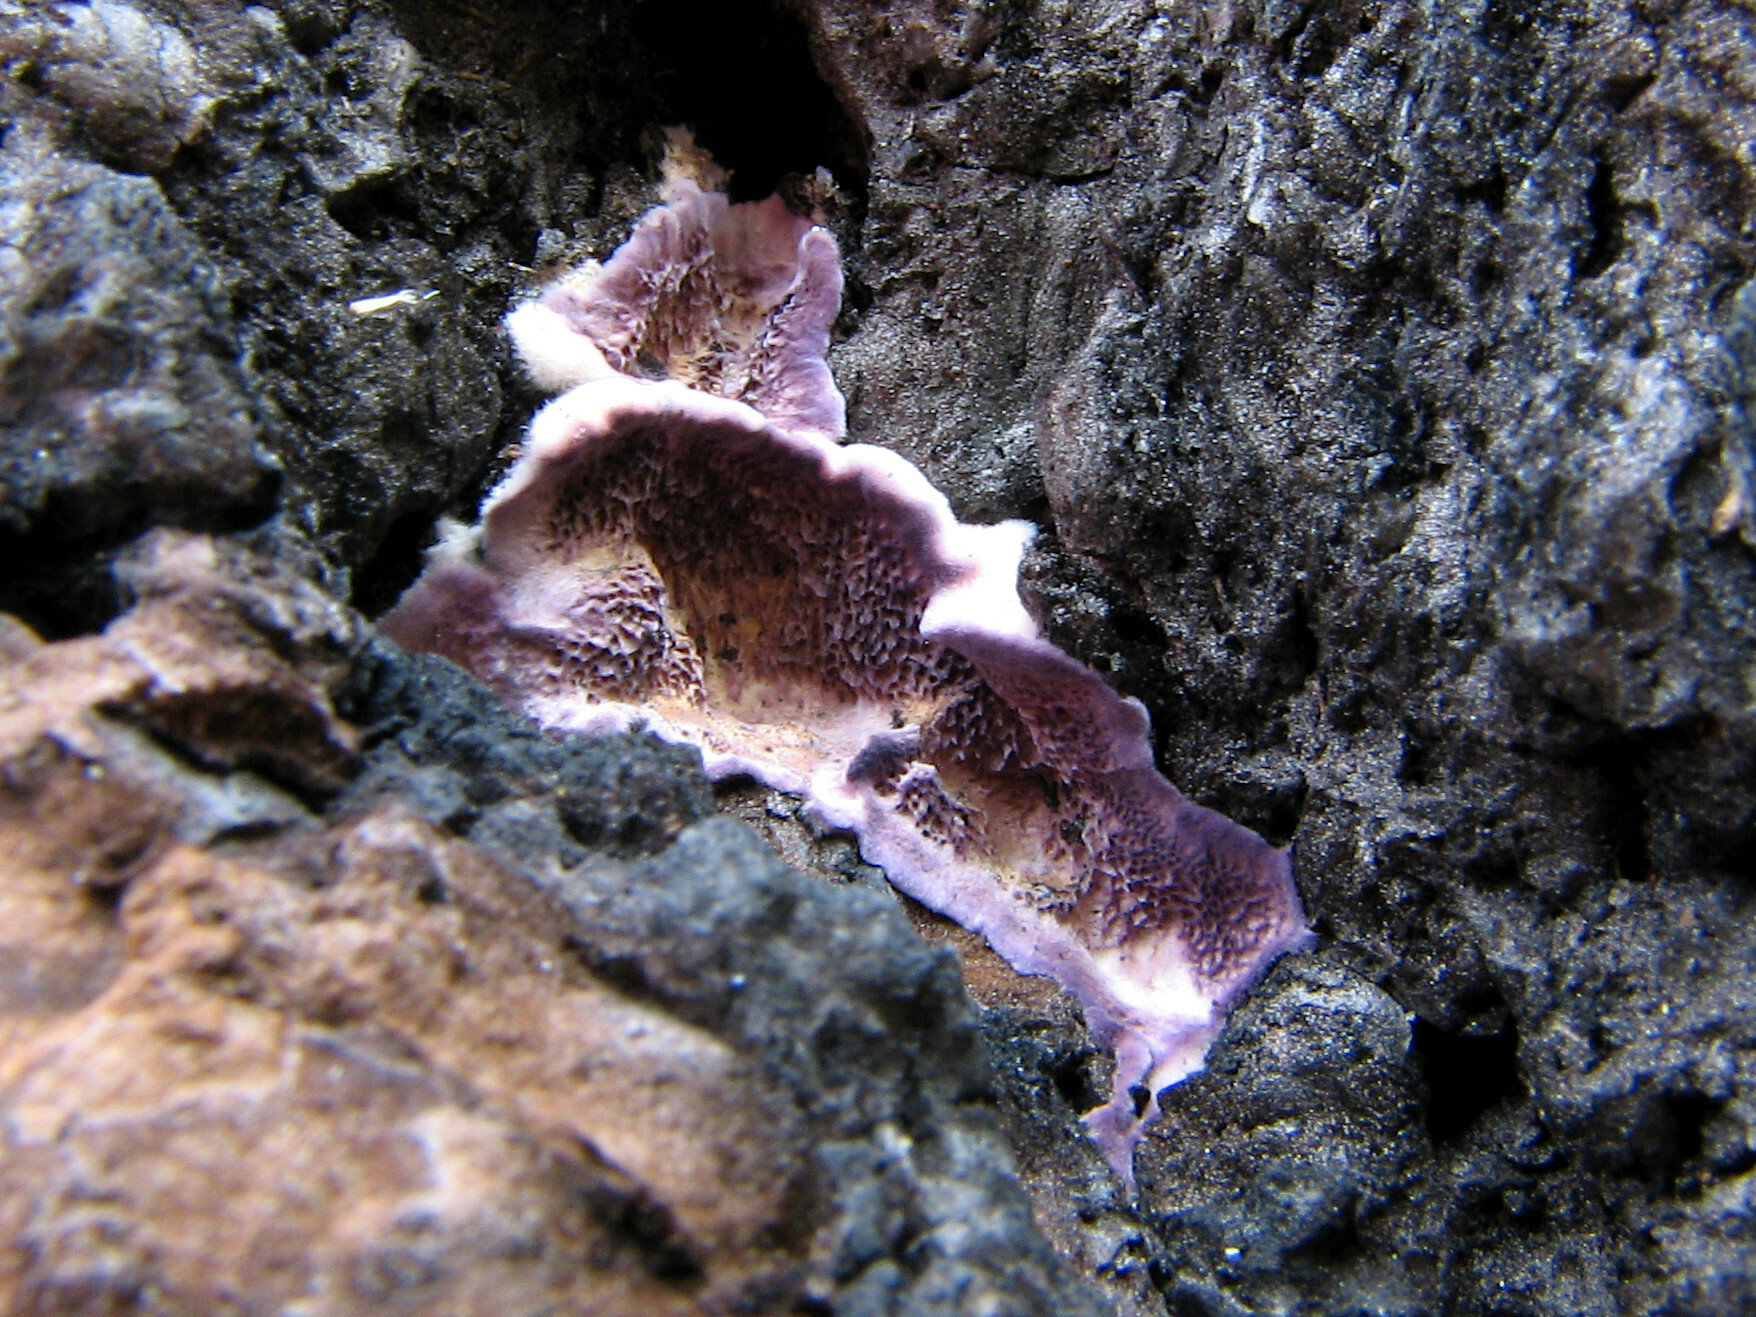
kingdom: Fungi
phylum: Basidiomycota
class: Agaricomycetes
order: Hymenochaetales
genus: Trichaptum
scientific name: Trichaptum abietinum
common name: Purplepore bracket
